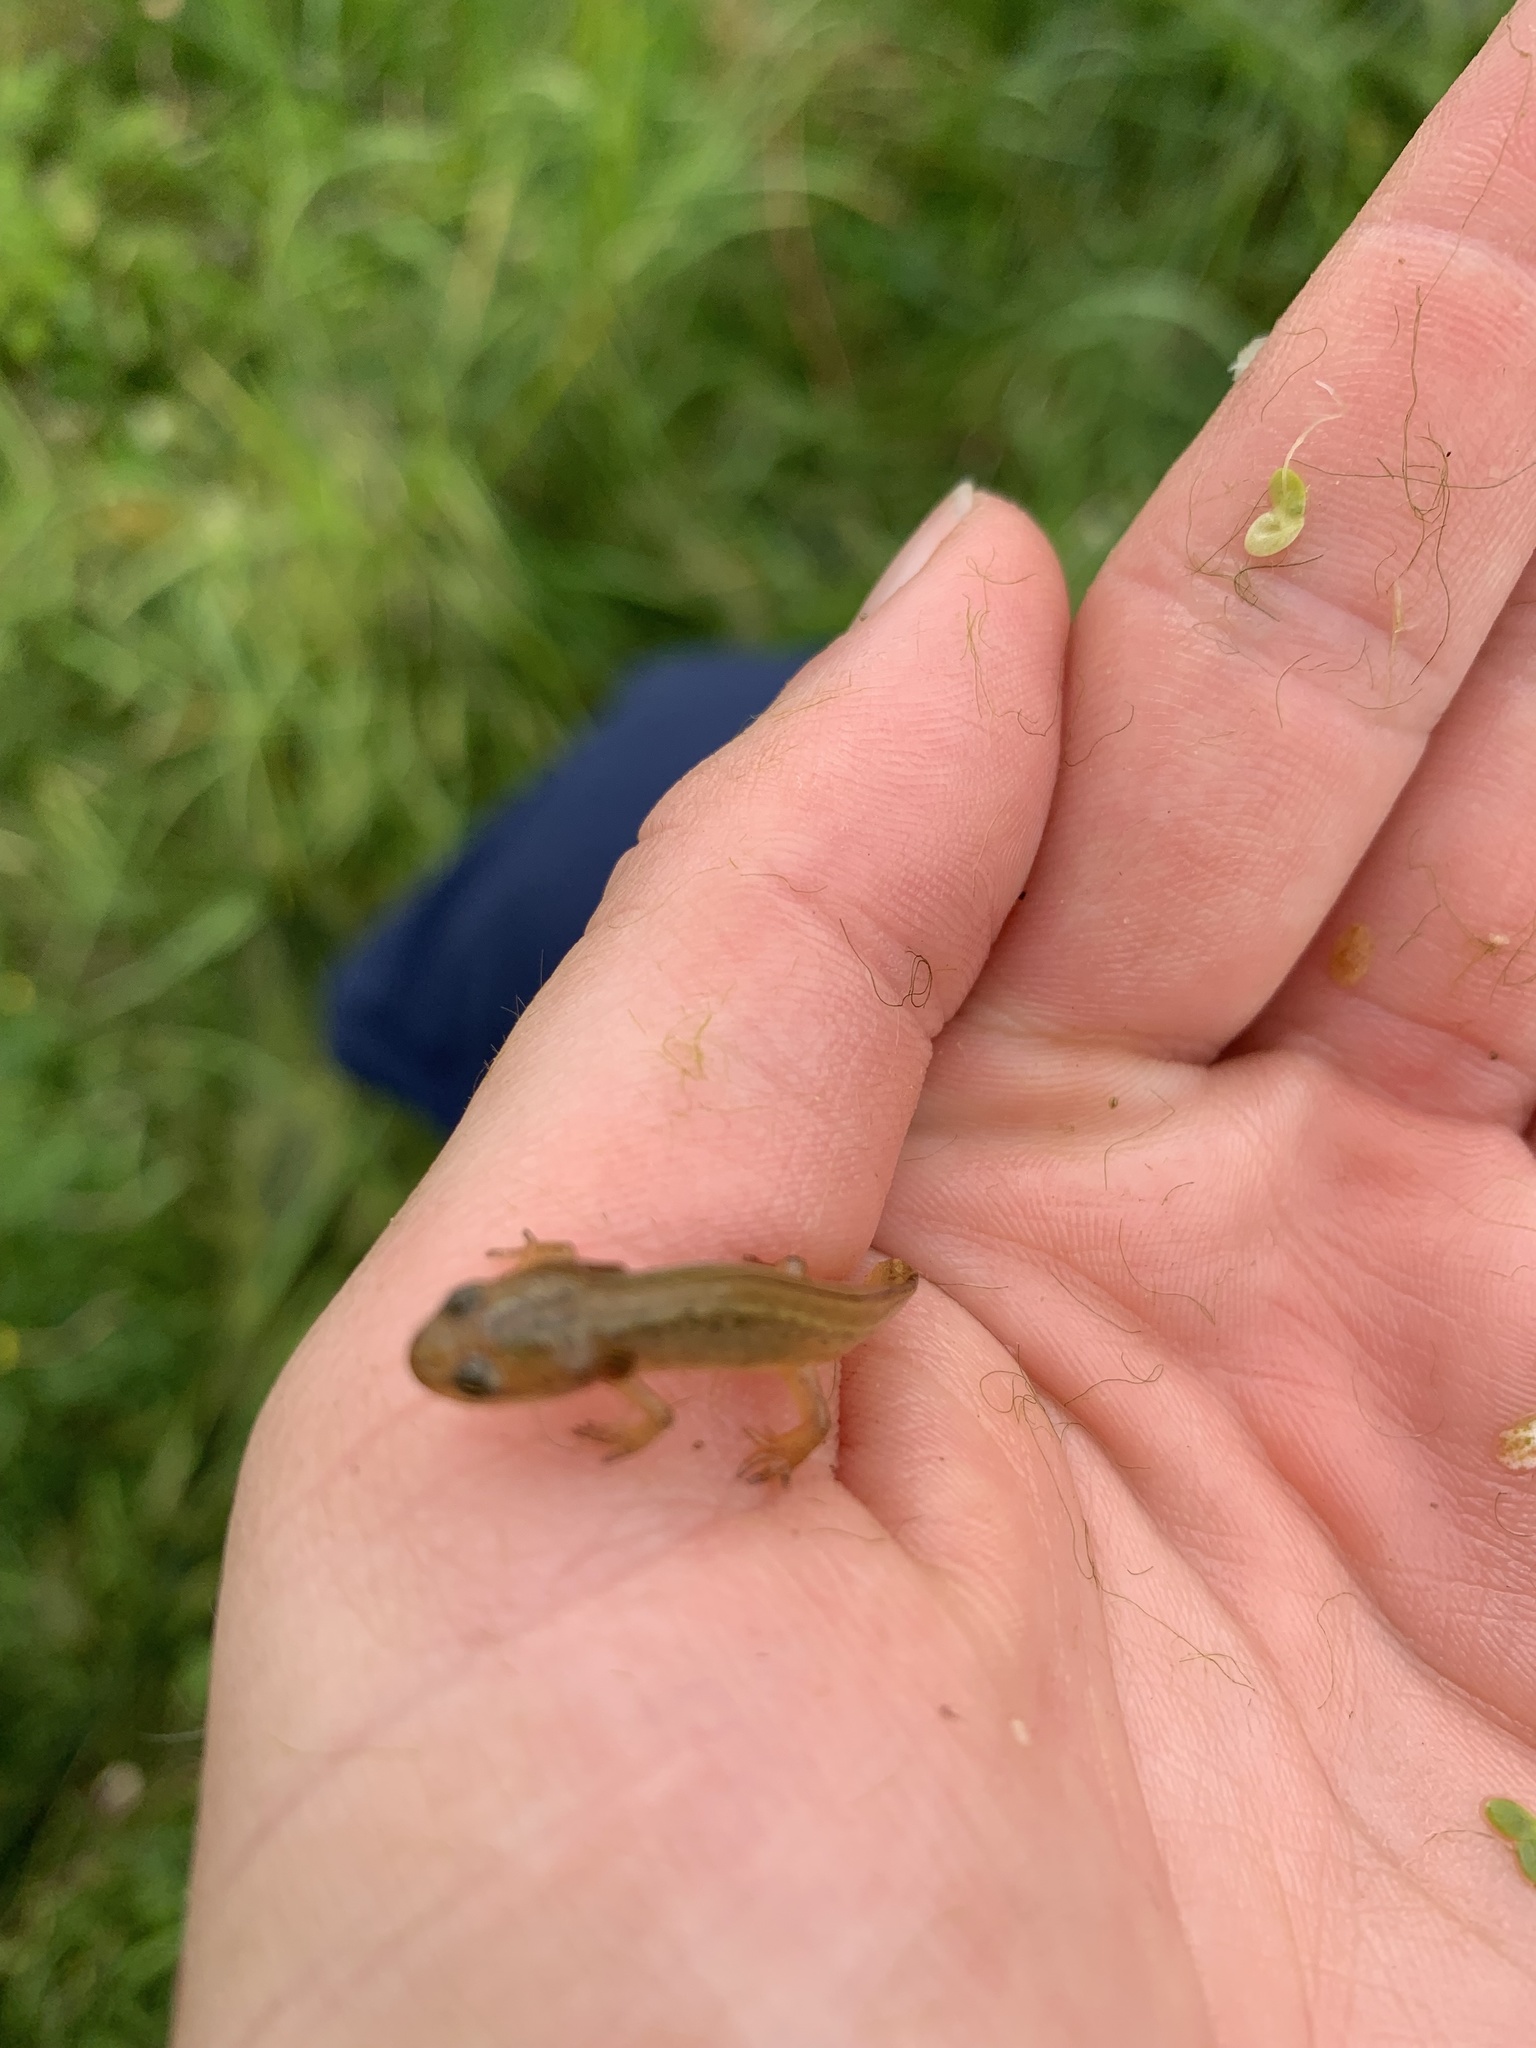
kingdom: Animalia
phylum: Chordata
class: Amphibia
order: Caudata
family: Salamandridae
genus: Lissotriton
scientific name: Lissotriton vulgaris
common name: Smooth newt
